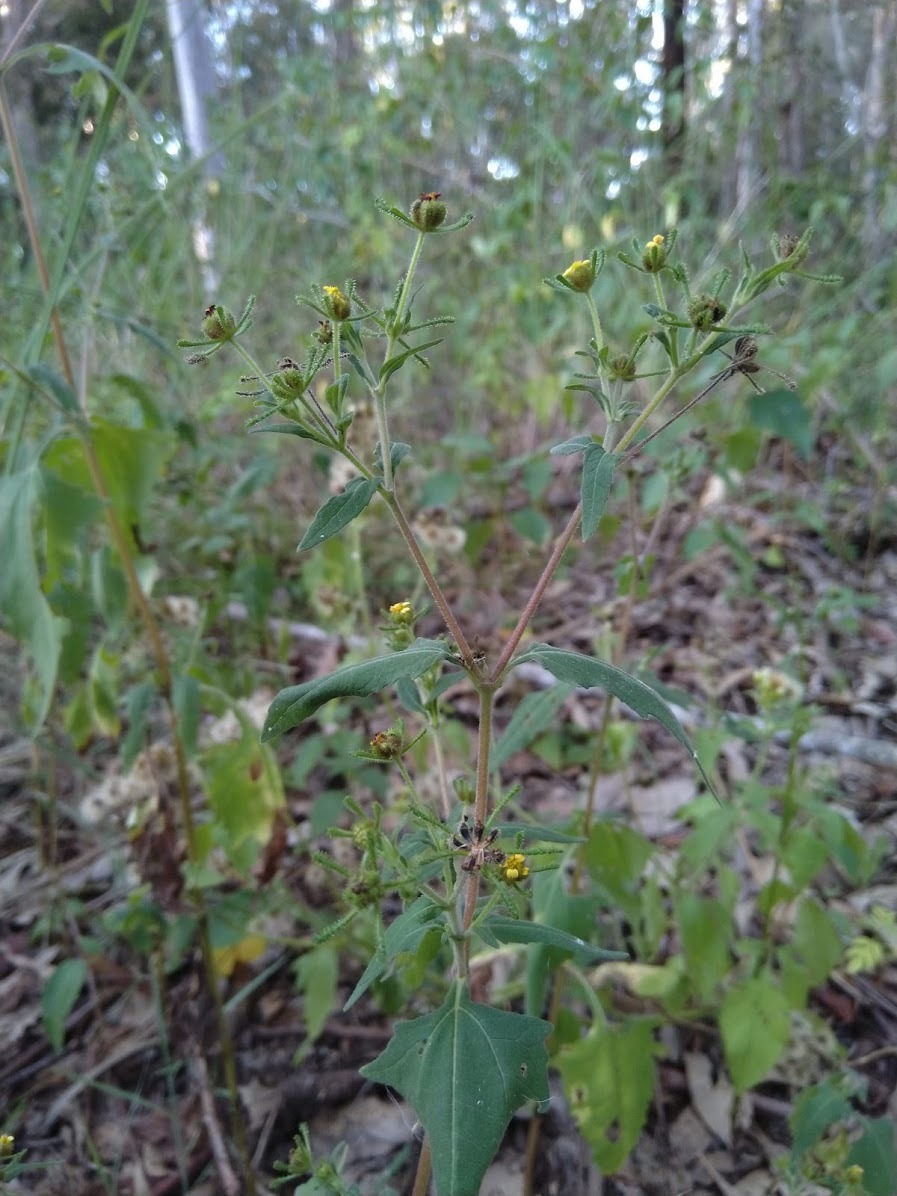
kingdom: Plantae
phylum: Tracheophyta
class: Magnoliopsida
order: Asterales
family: Asteraceae
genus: Sigesbeckia
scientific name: Sigesbeckia orientalis
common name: Eastern st paul's-wort
